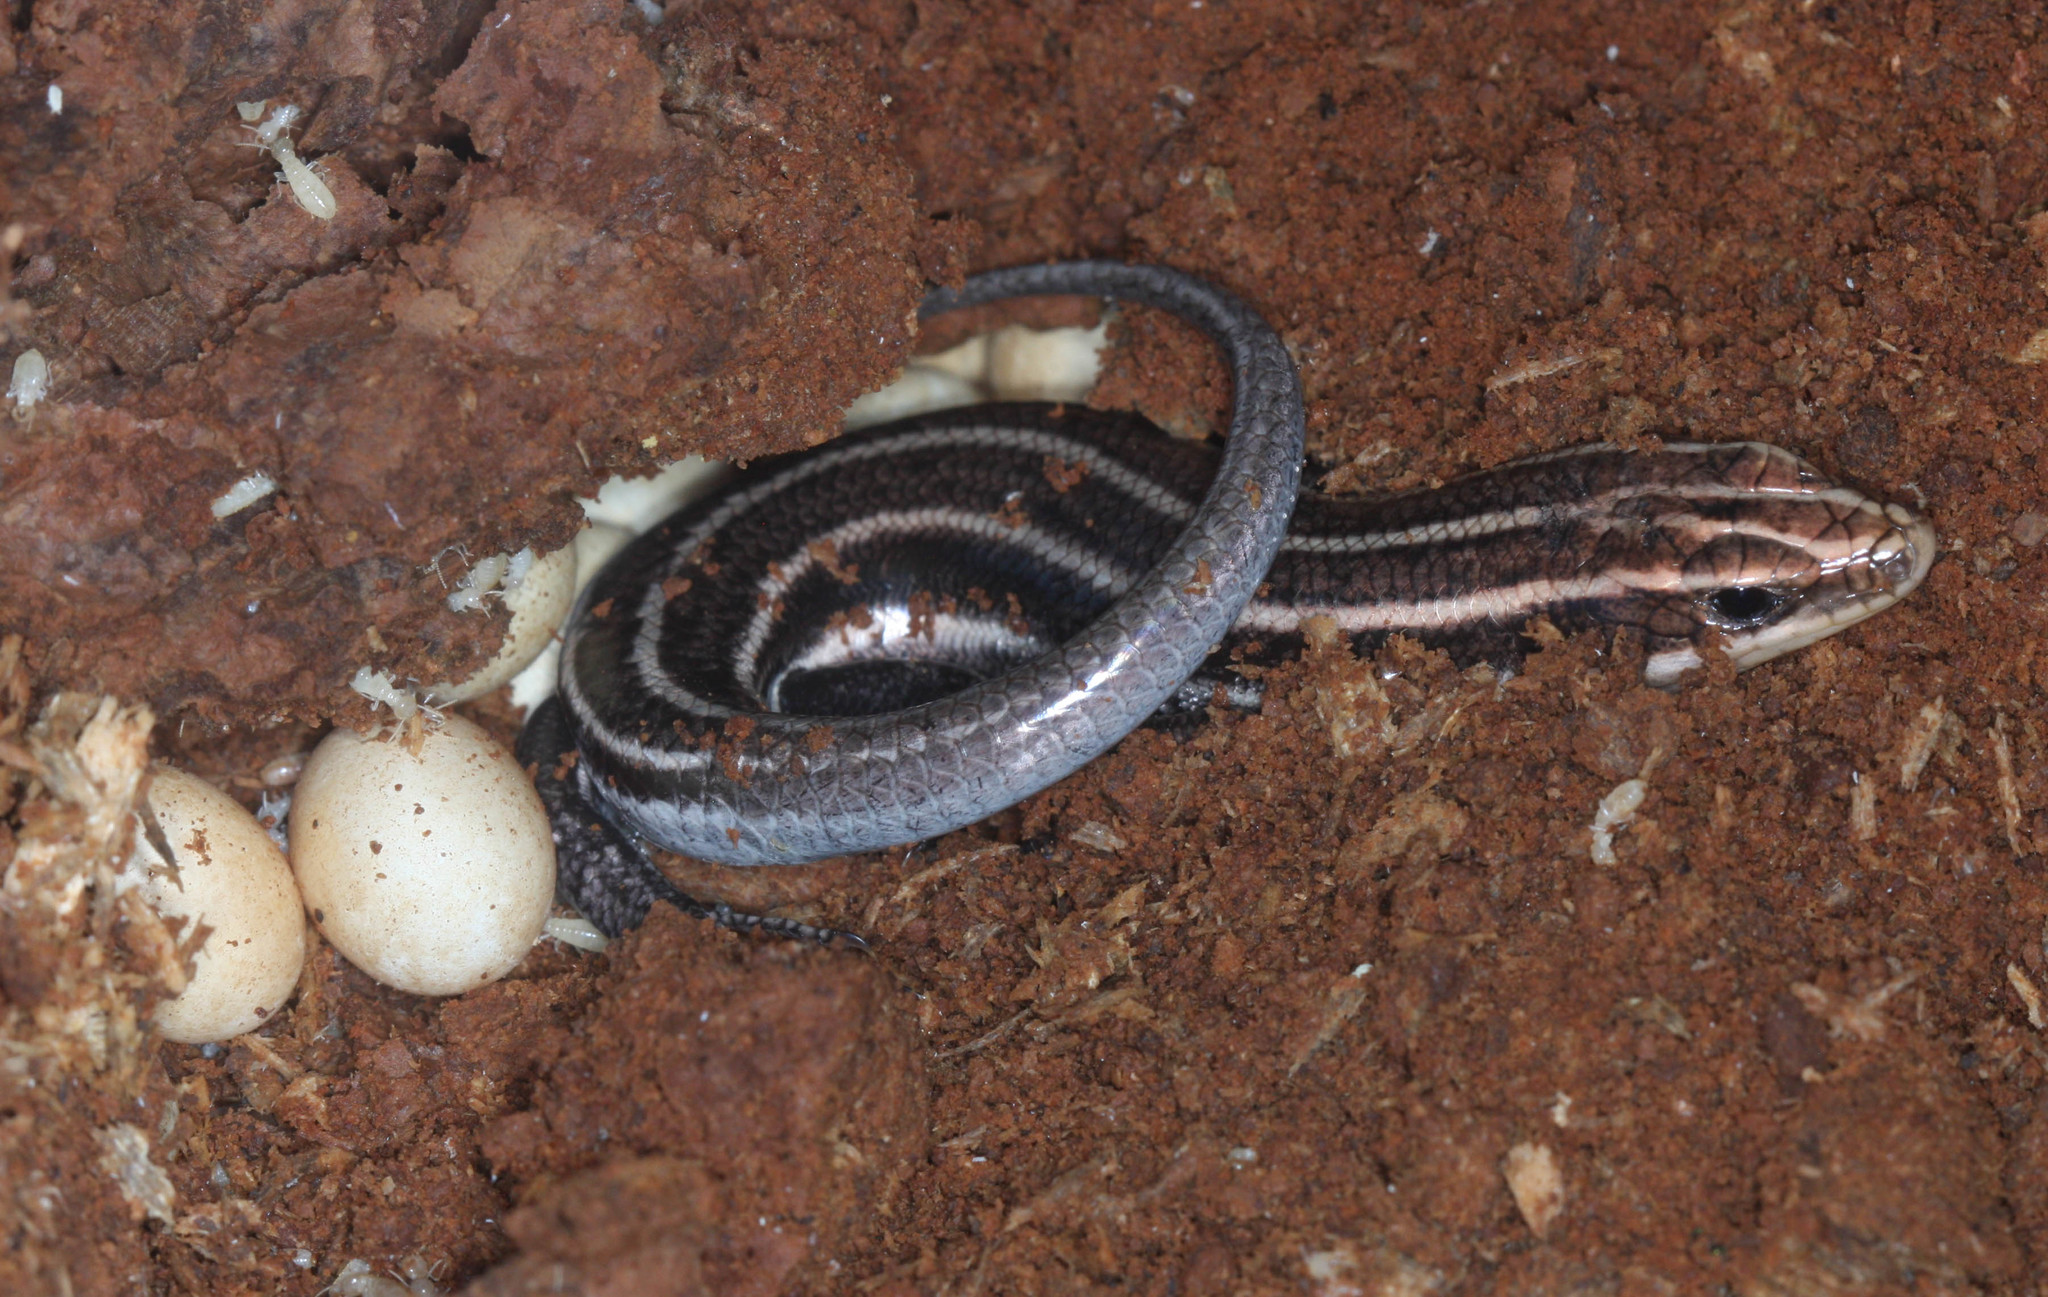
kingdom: Animalia
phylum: Chordata
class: Squamata
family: Scincidae
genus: Plestiodon
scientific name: Plestiodon fasciatus
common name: Five-lined skink
